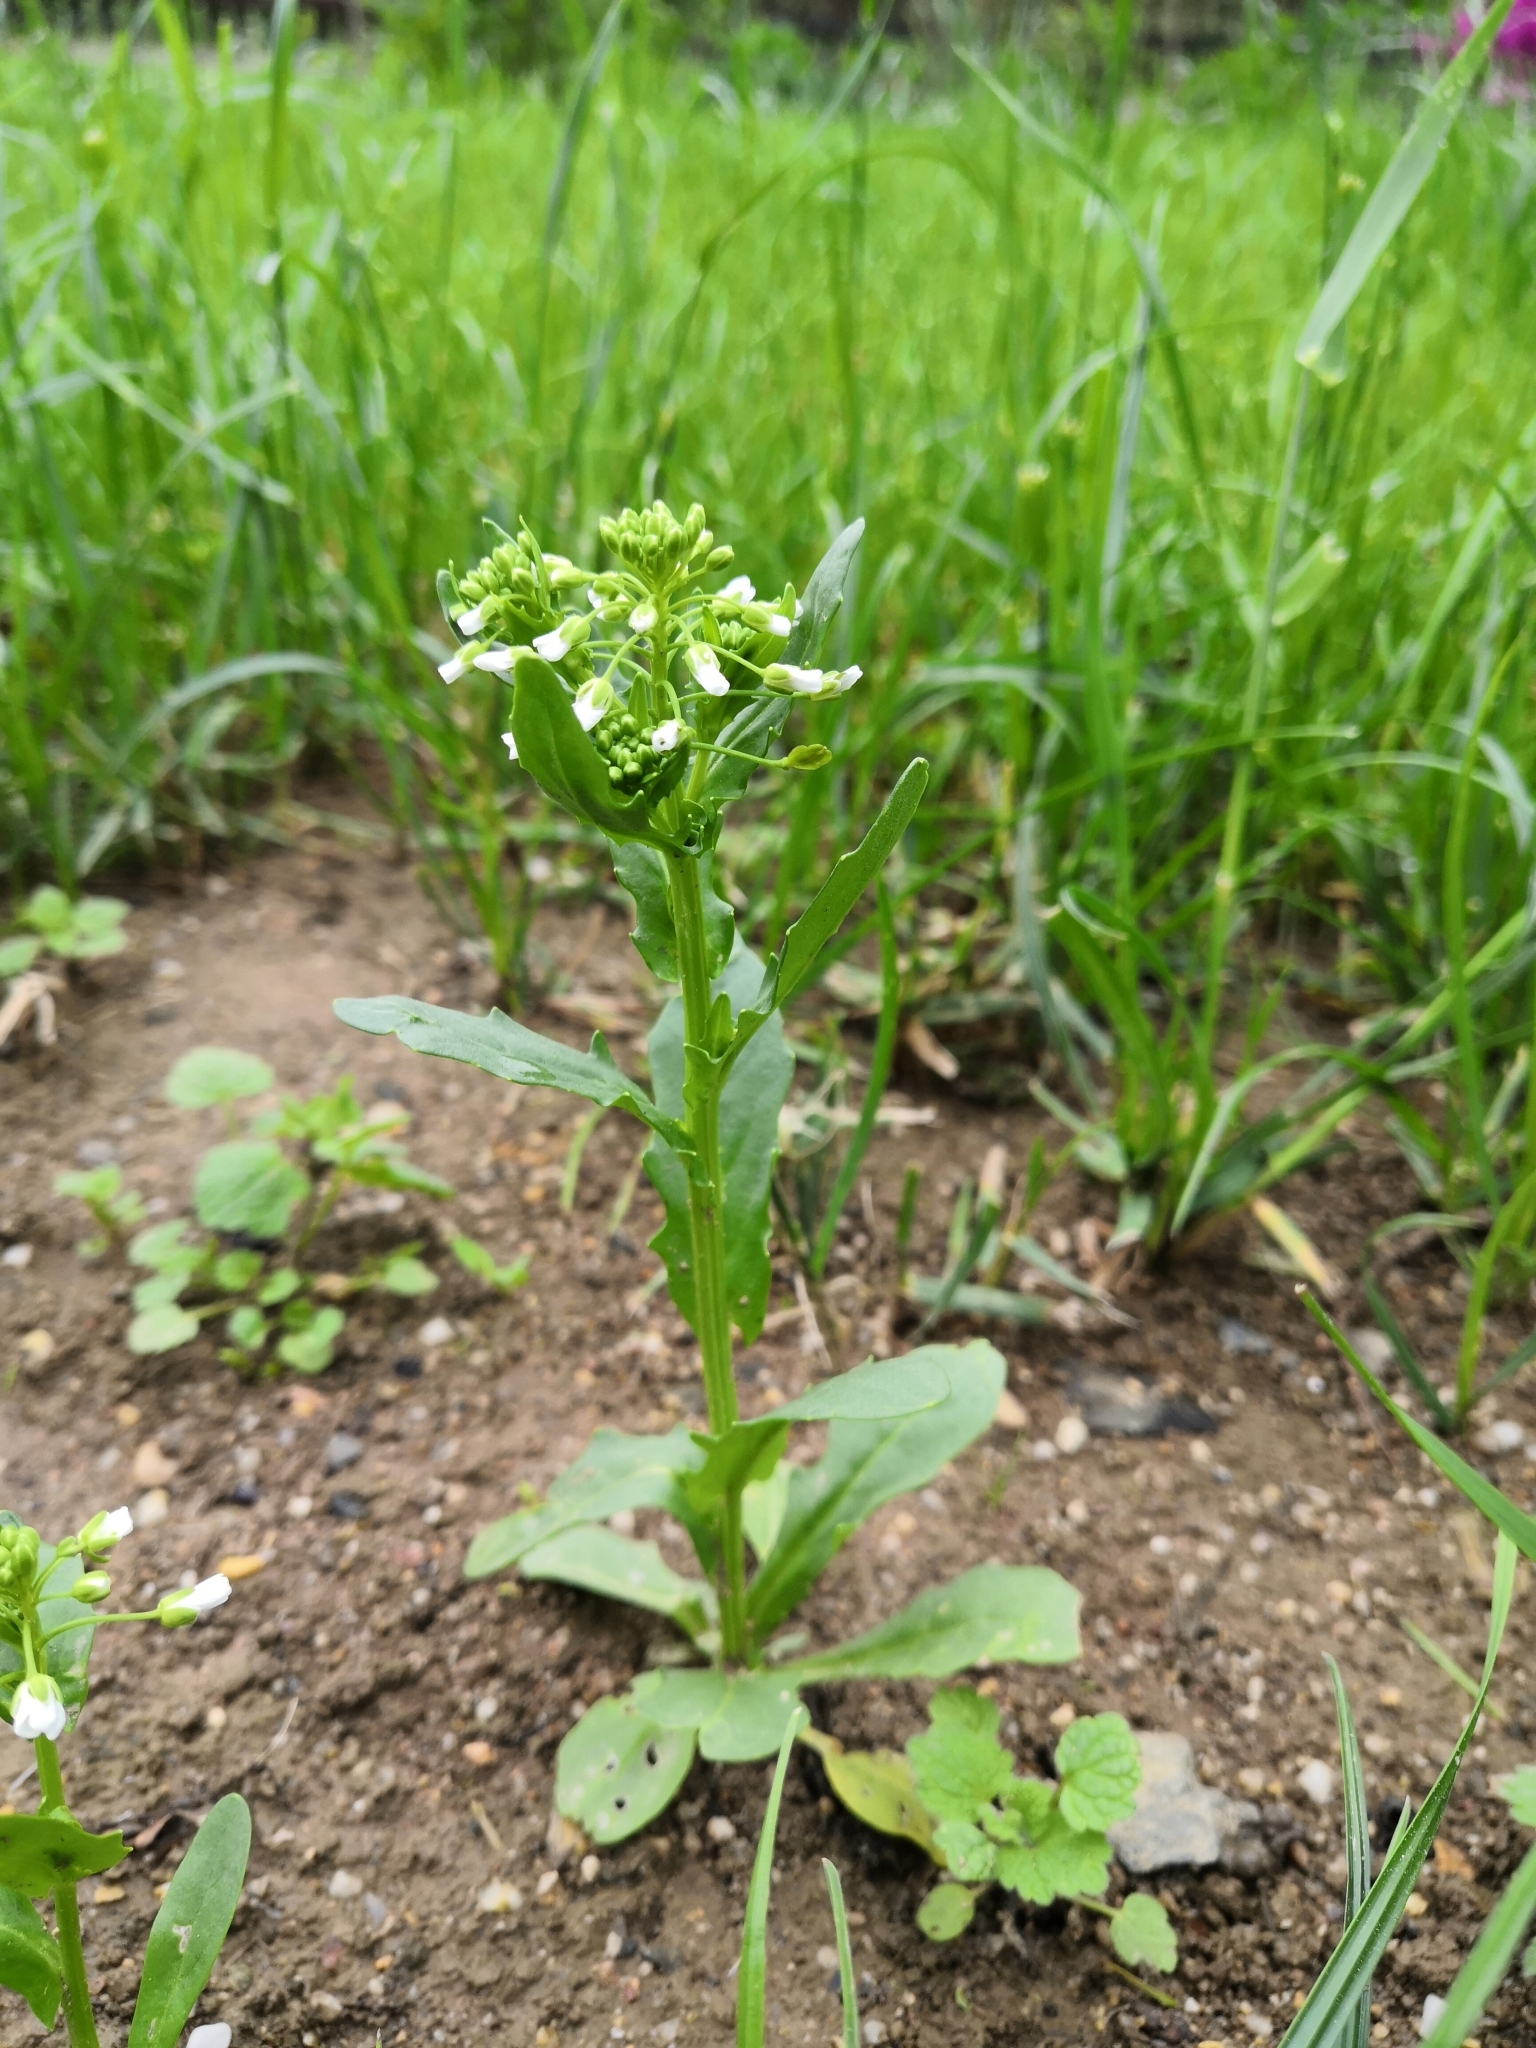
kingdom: Plantae
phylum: Tracheophyta
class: Magnoliopsida
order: Brassicales
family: Brassicaceae
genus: Thlaspi
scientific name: Thlaspi arvense
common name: Field pennycress
